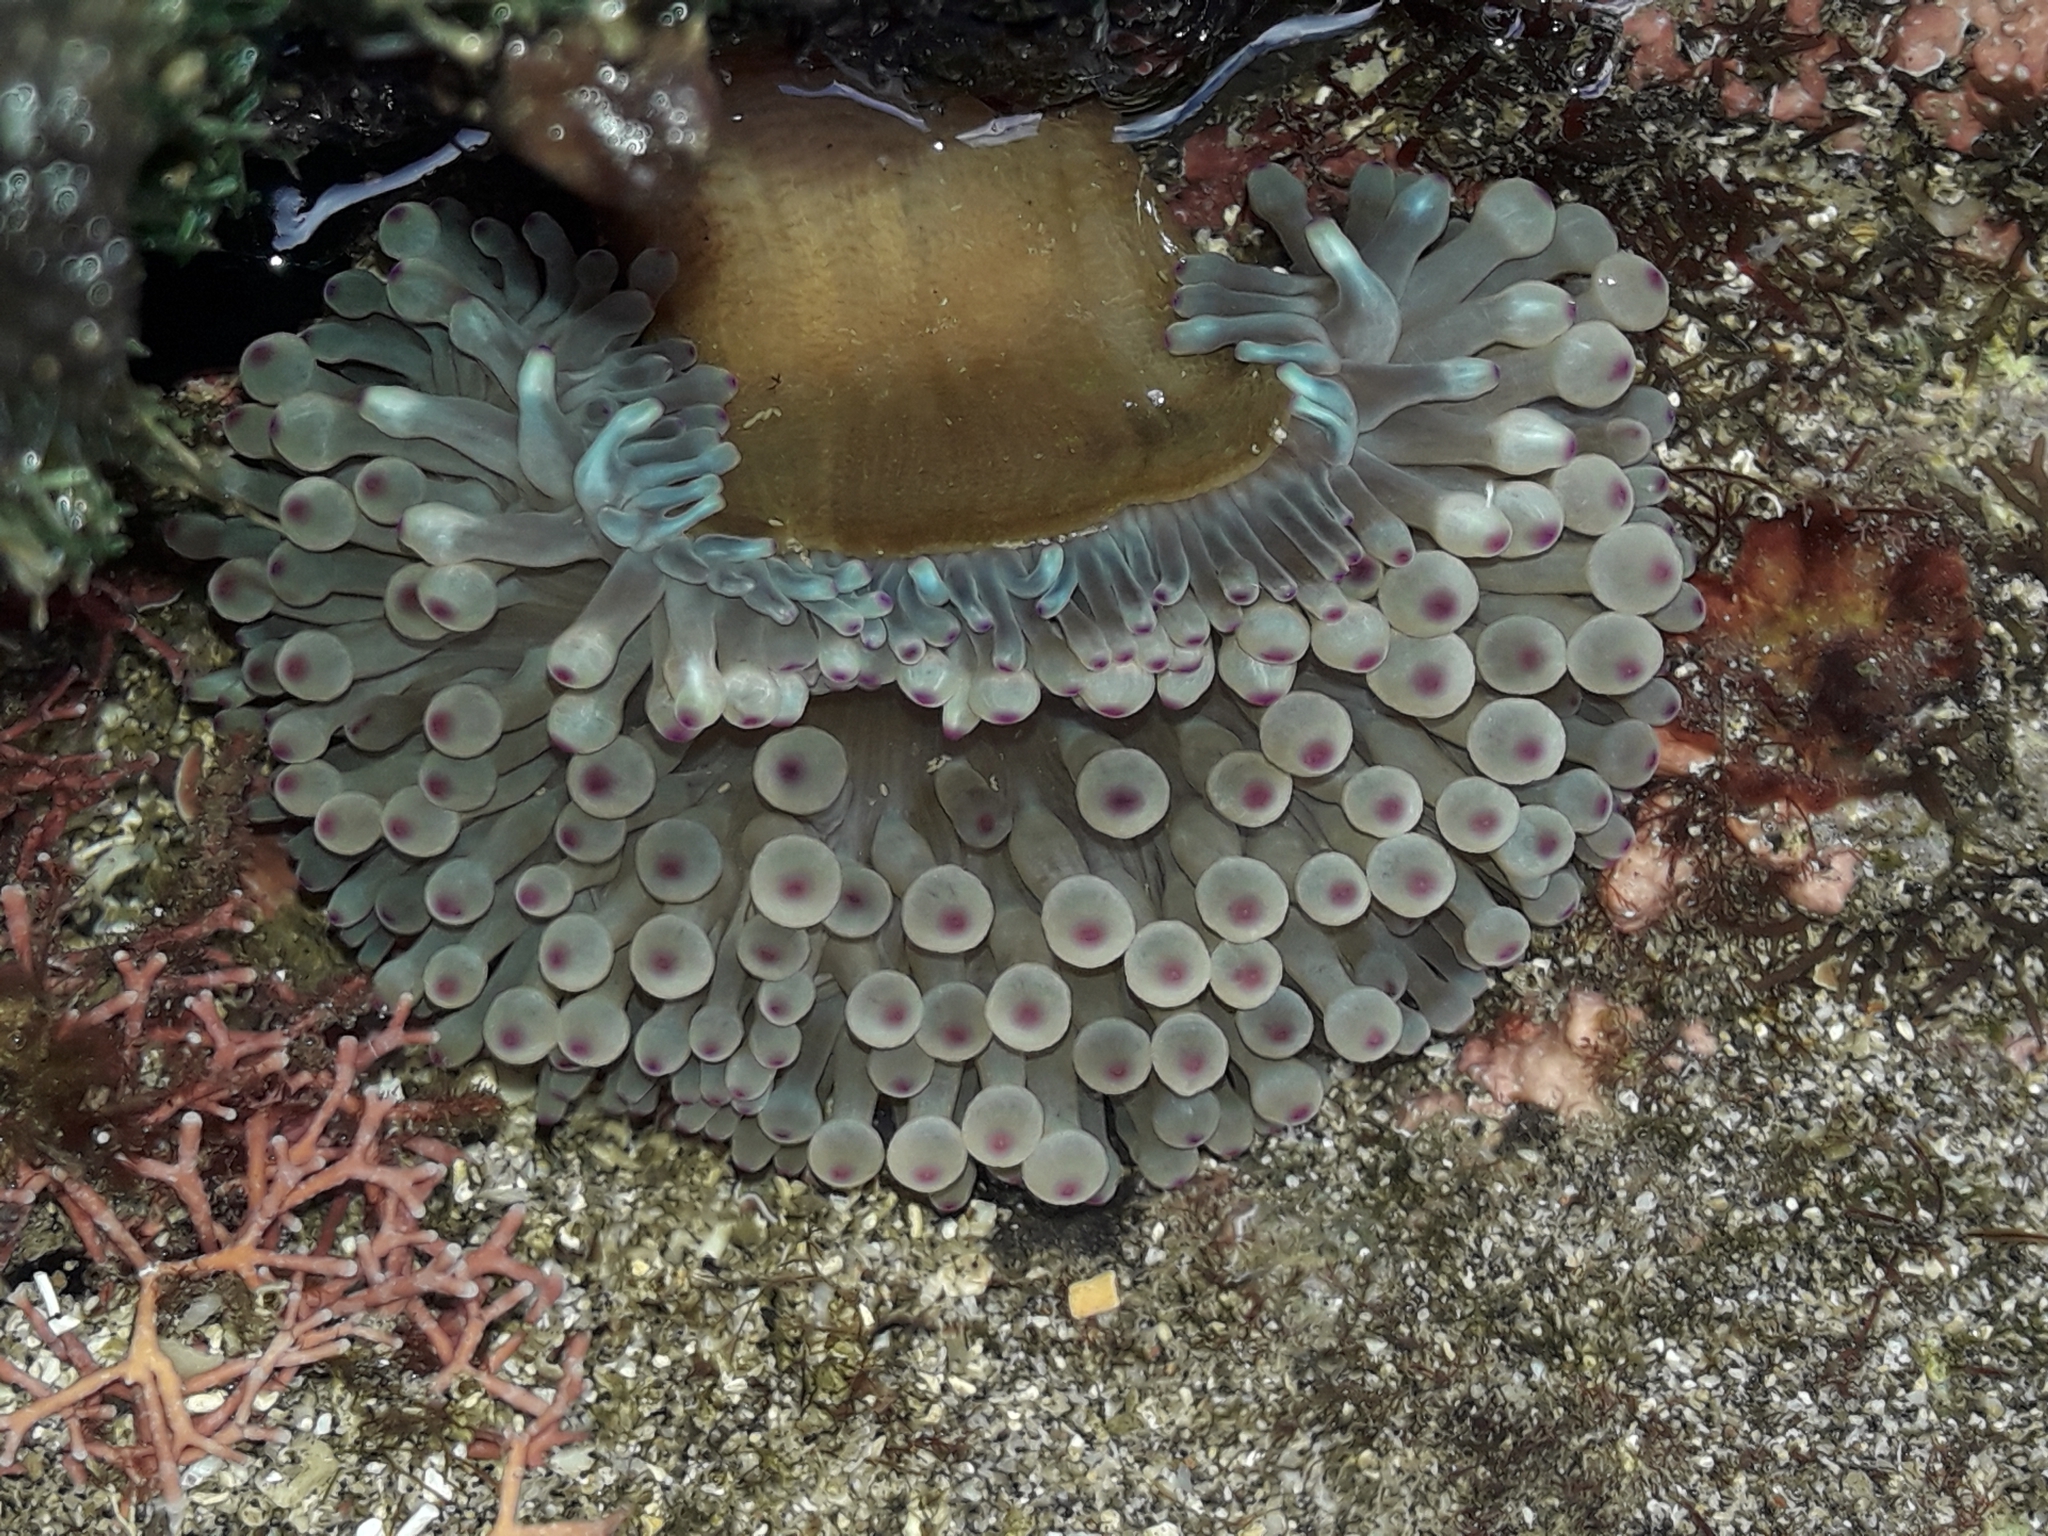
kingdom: Animalia
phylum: Cnidaria
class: Anthozoa
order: Actiniaria
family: Actiniidae
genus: Entacmaea
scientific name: Entacmaea quadricolor
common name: Bulb tentacle sea anemone
